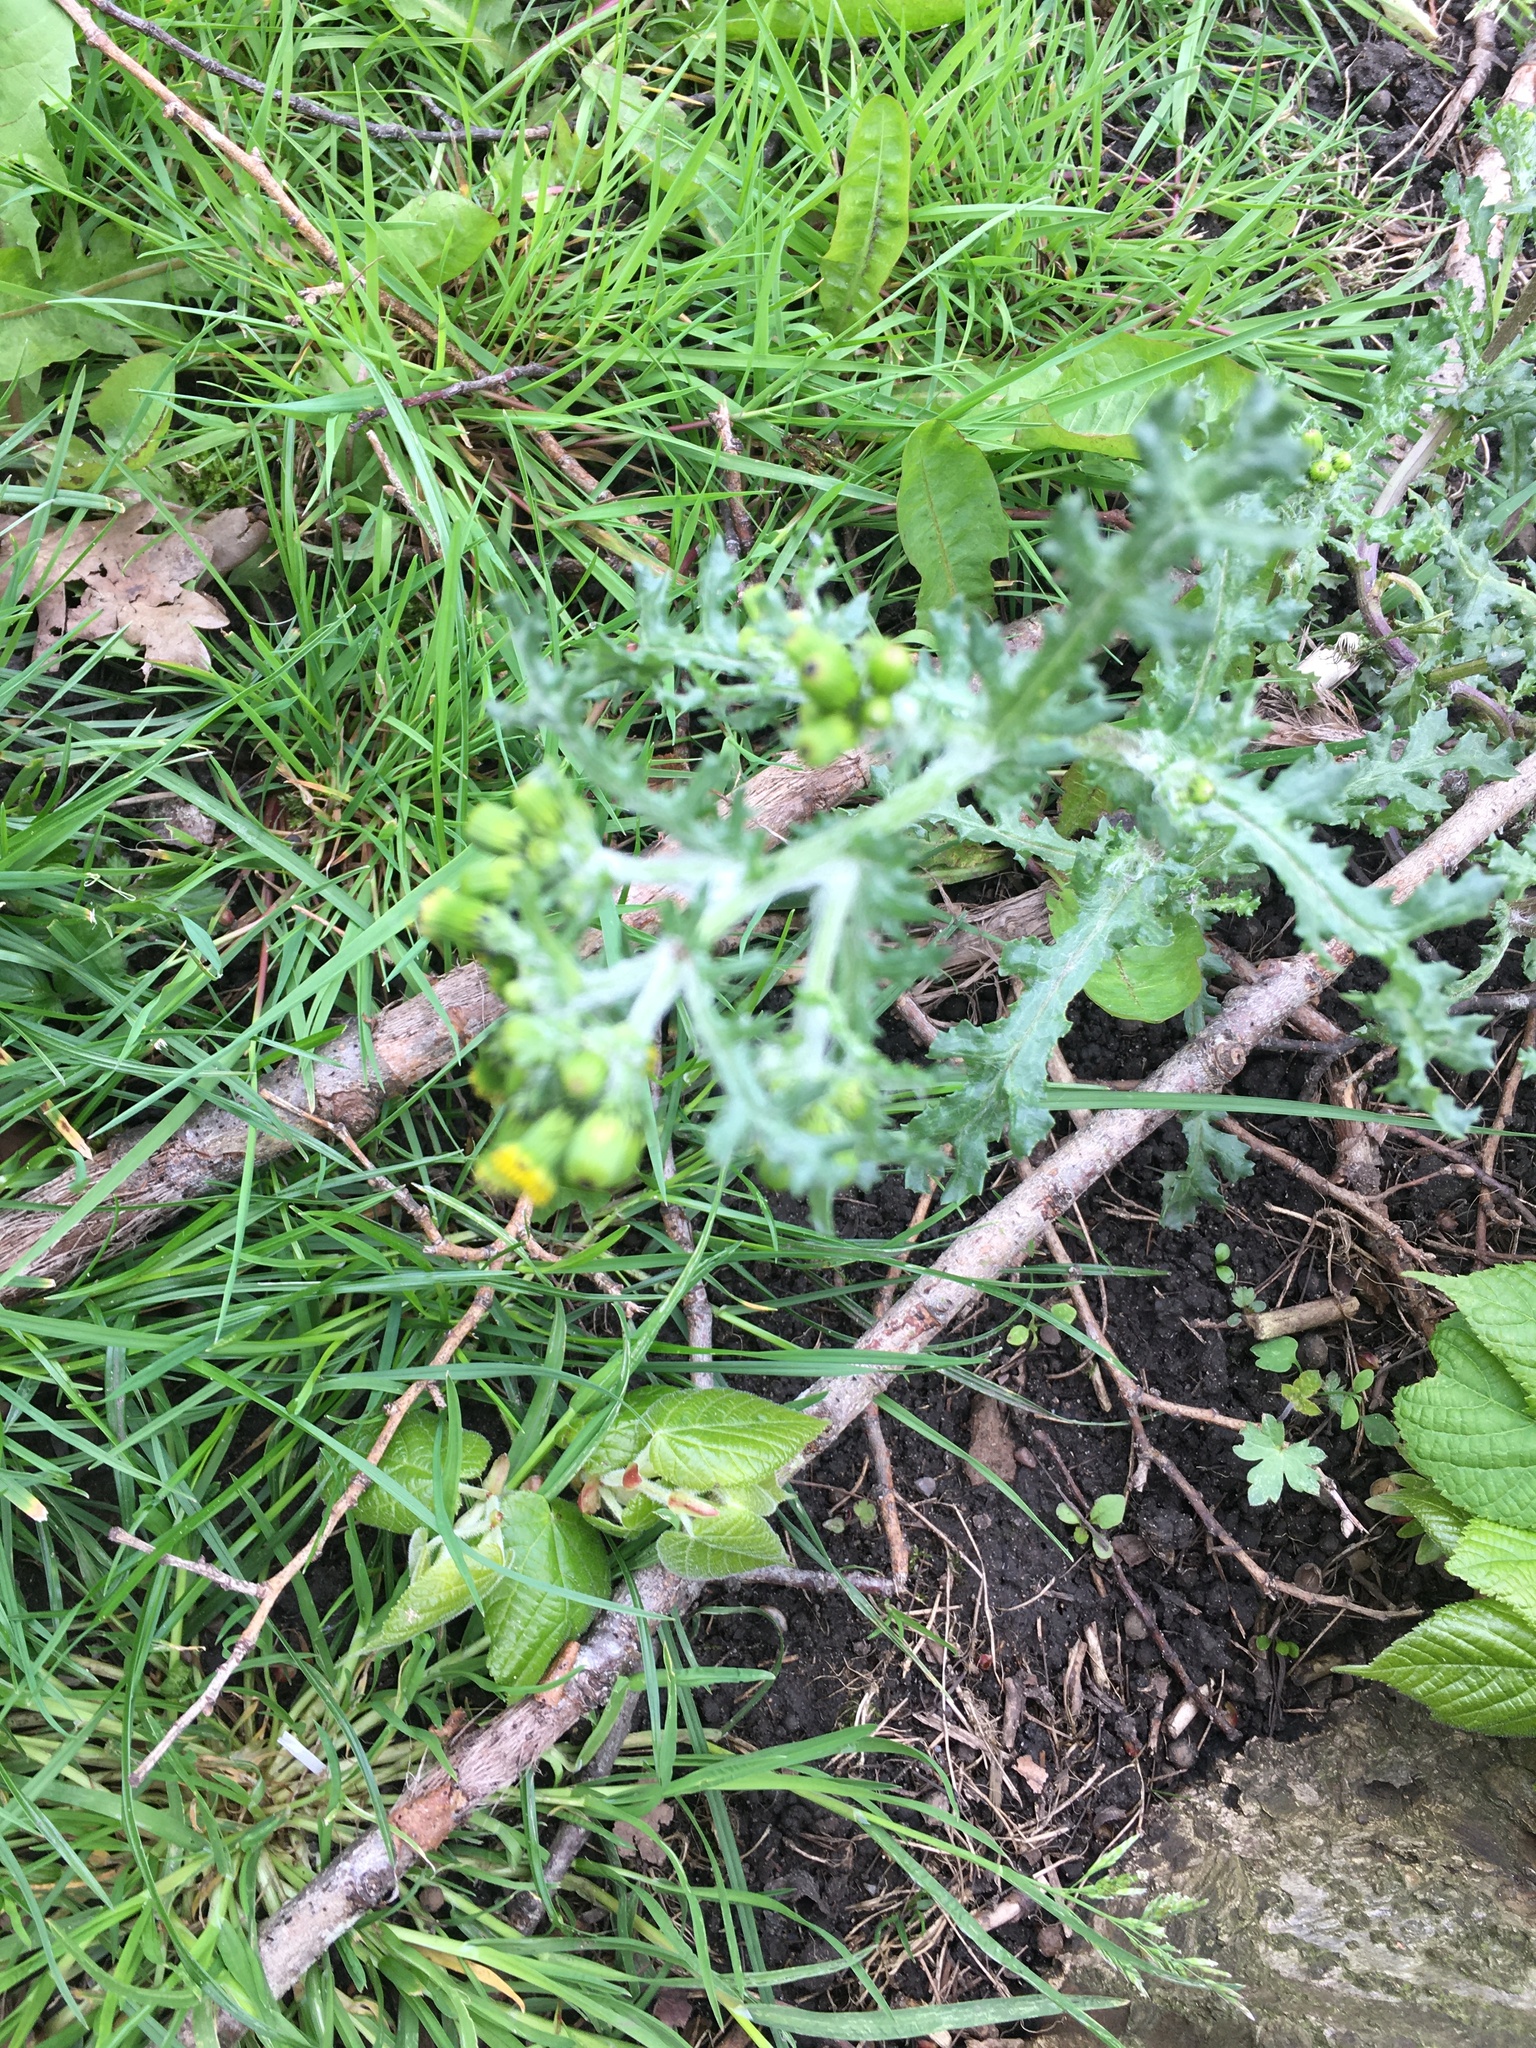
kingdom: Plantae
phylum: Tracheophyta
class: Magnoliopsida
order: Asterales
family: Asteraceae
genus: Senecio
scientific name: Senecio vulgaris
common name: Old-man-in-the-spring
